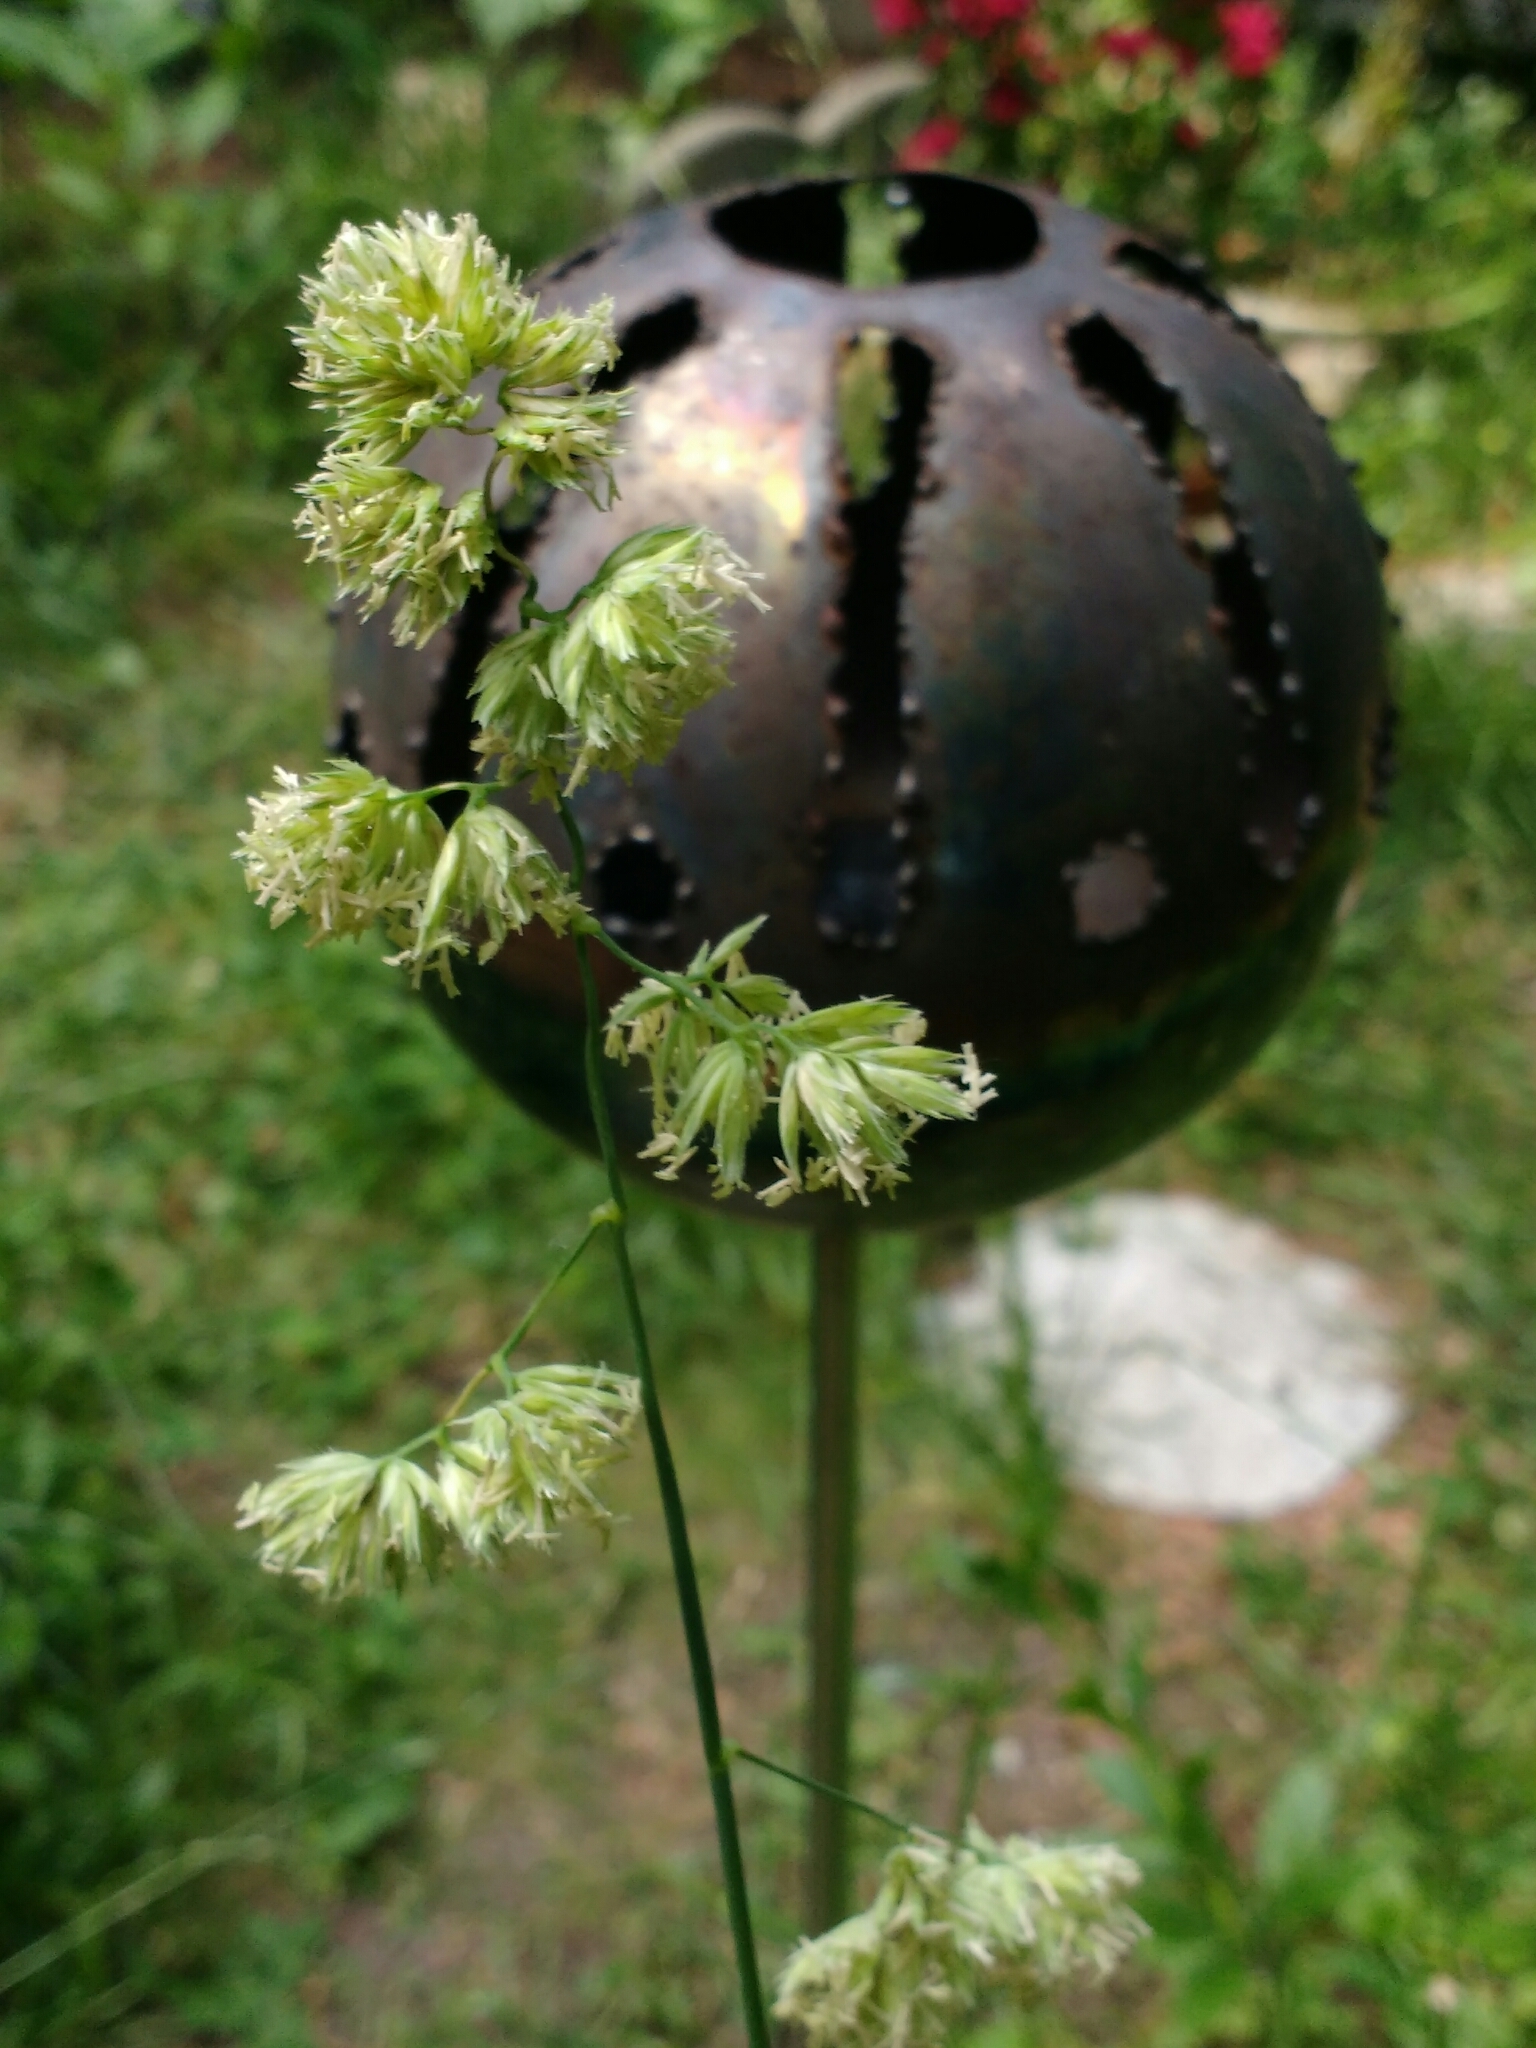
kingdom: Plantae
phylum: Tracheophyta
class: Liliopsida
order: Poales
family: Poaceae
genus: Dactylis
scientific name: Dactylis glomerata
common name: Orchardgrass
